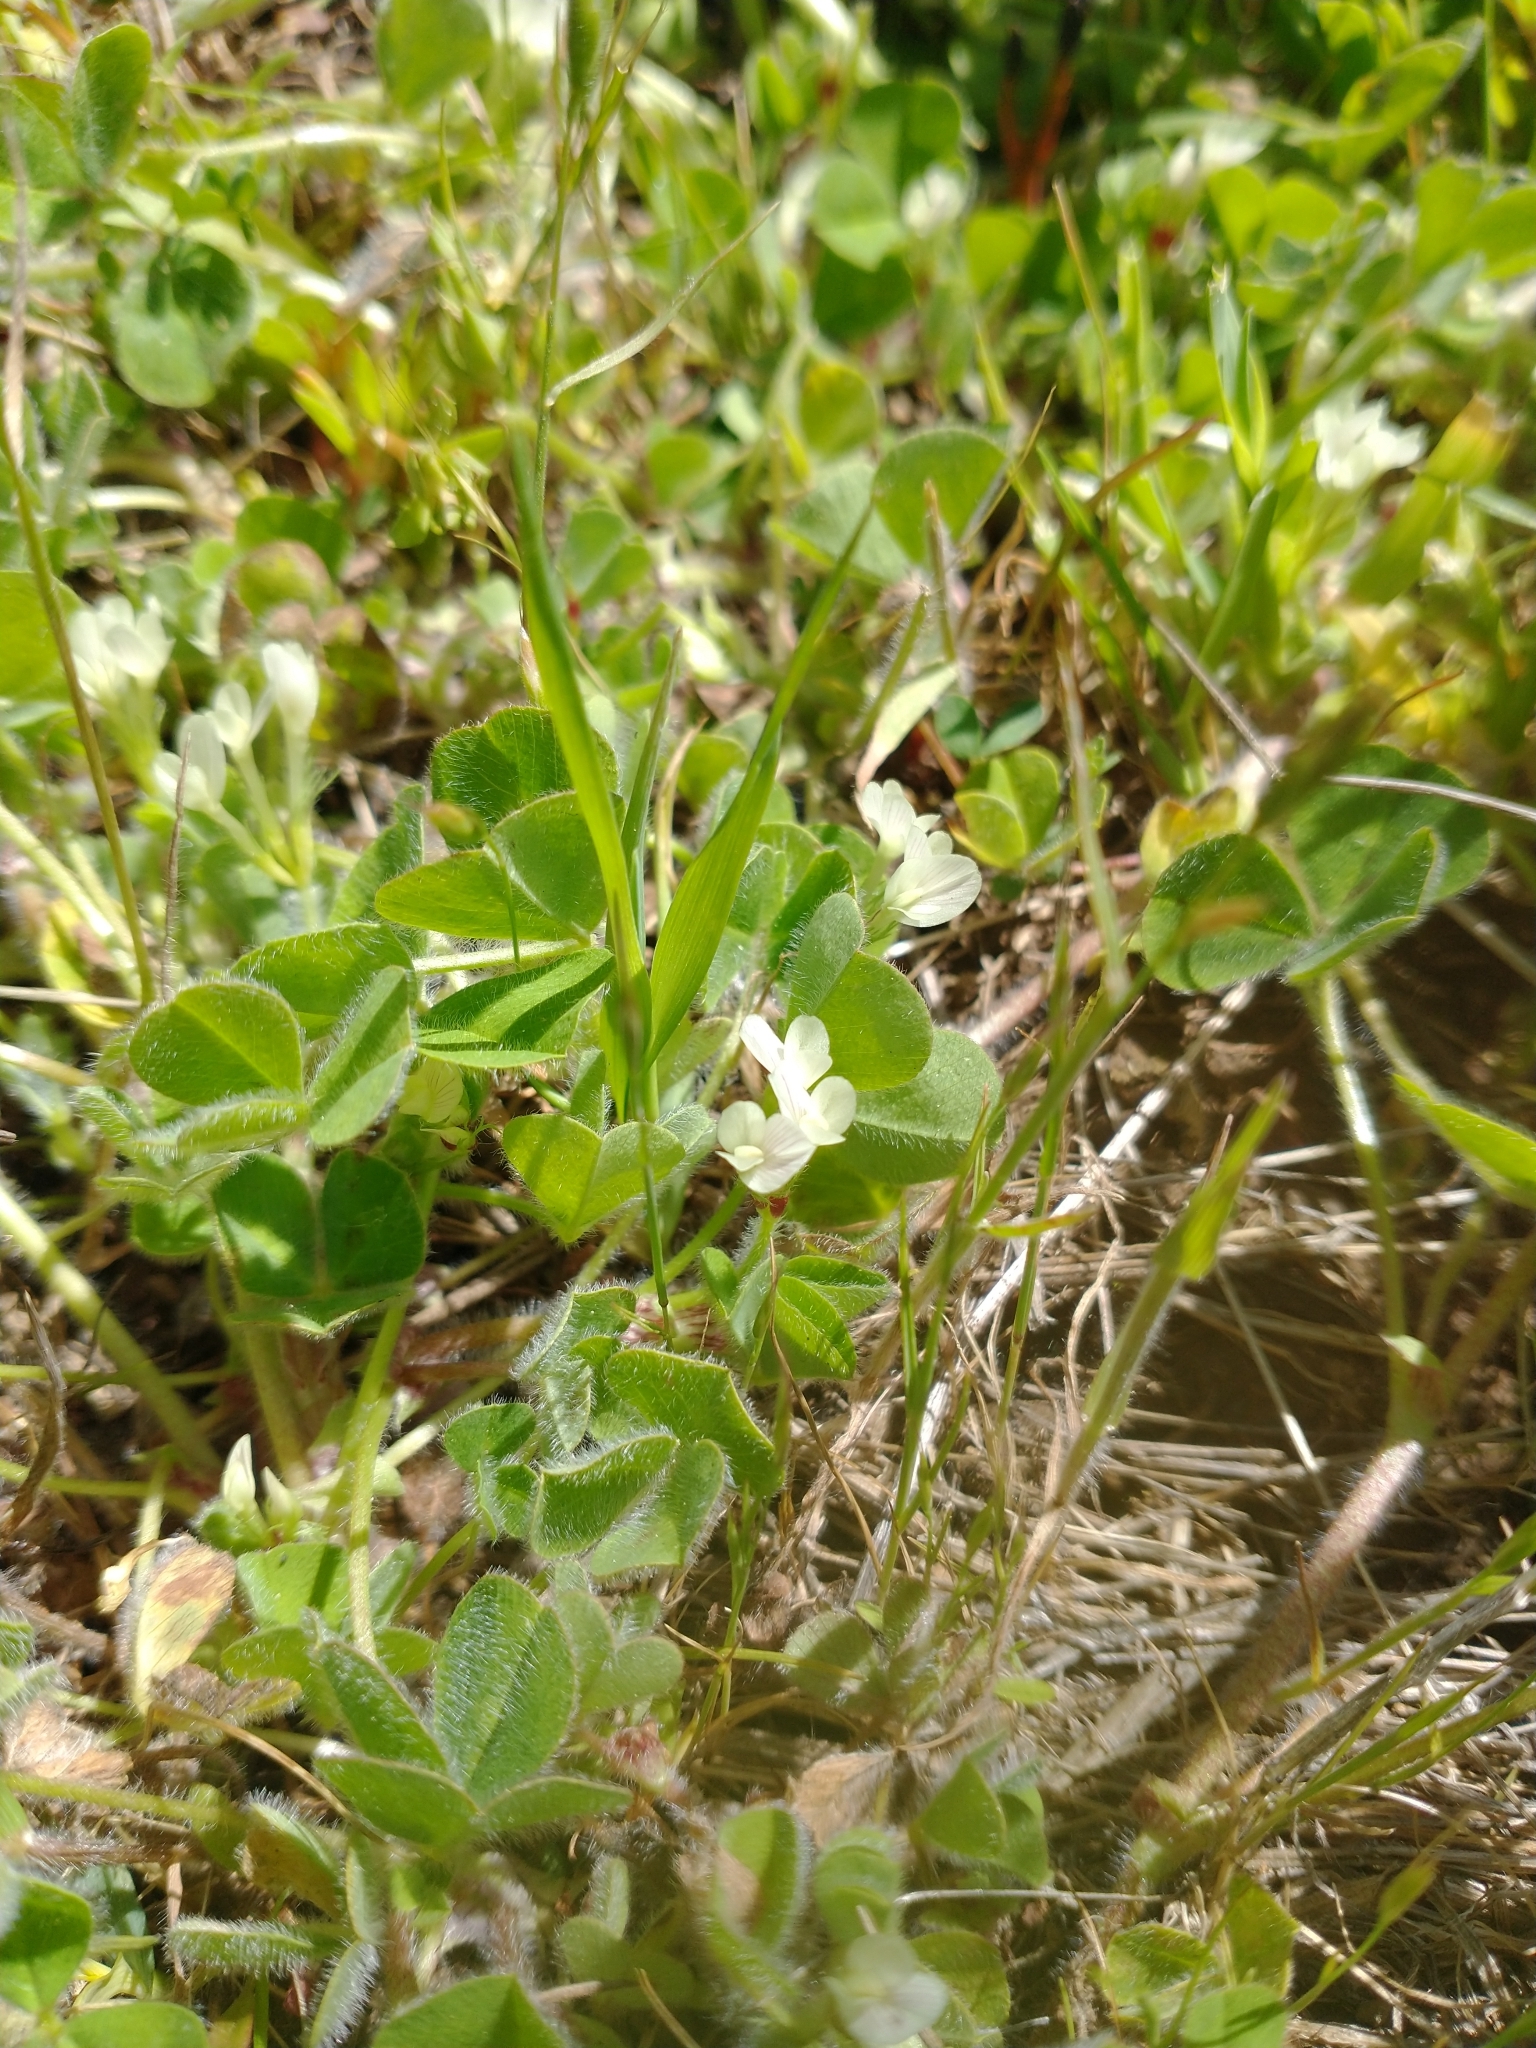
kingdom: Plantae
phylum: Tracheophyta
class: Magnoliopsida
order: Fabales
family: Fabaceae
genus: Trifolium
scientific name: Trifolium subterraneum
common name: Subterranean clover
